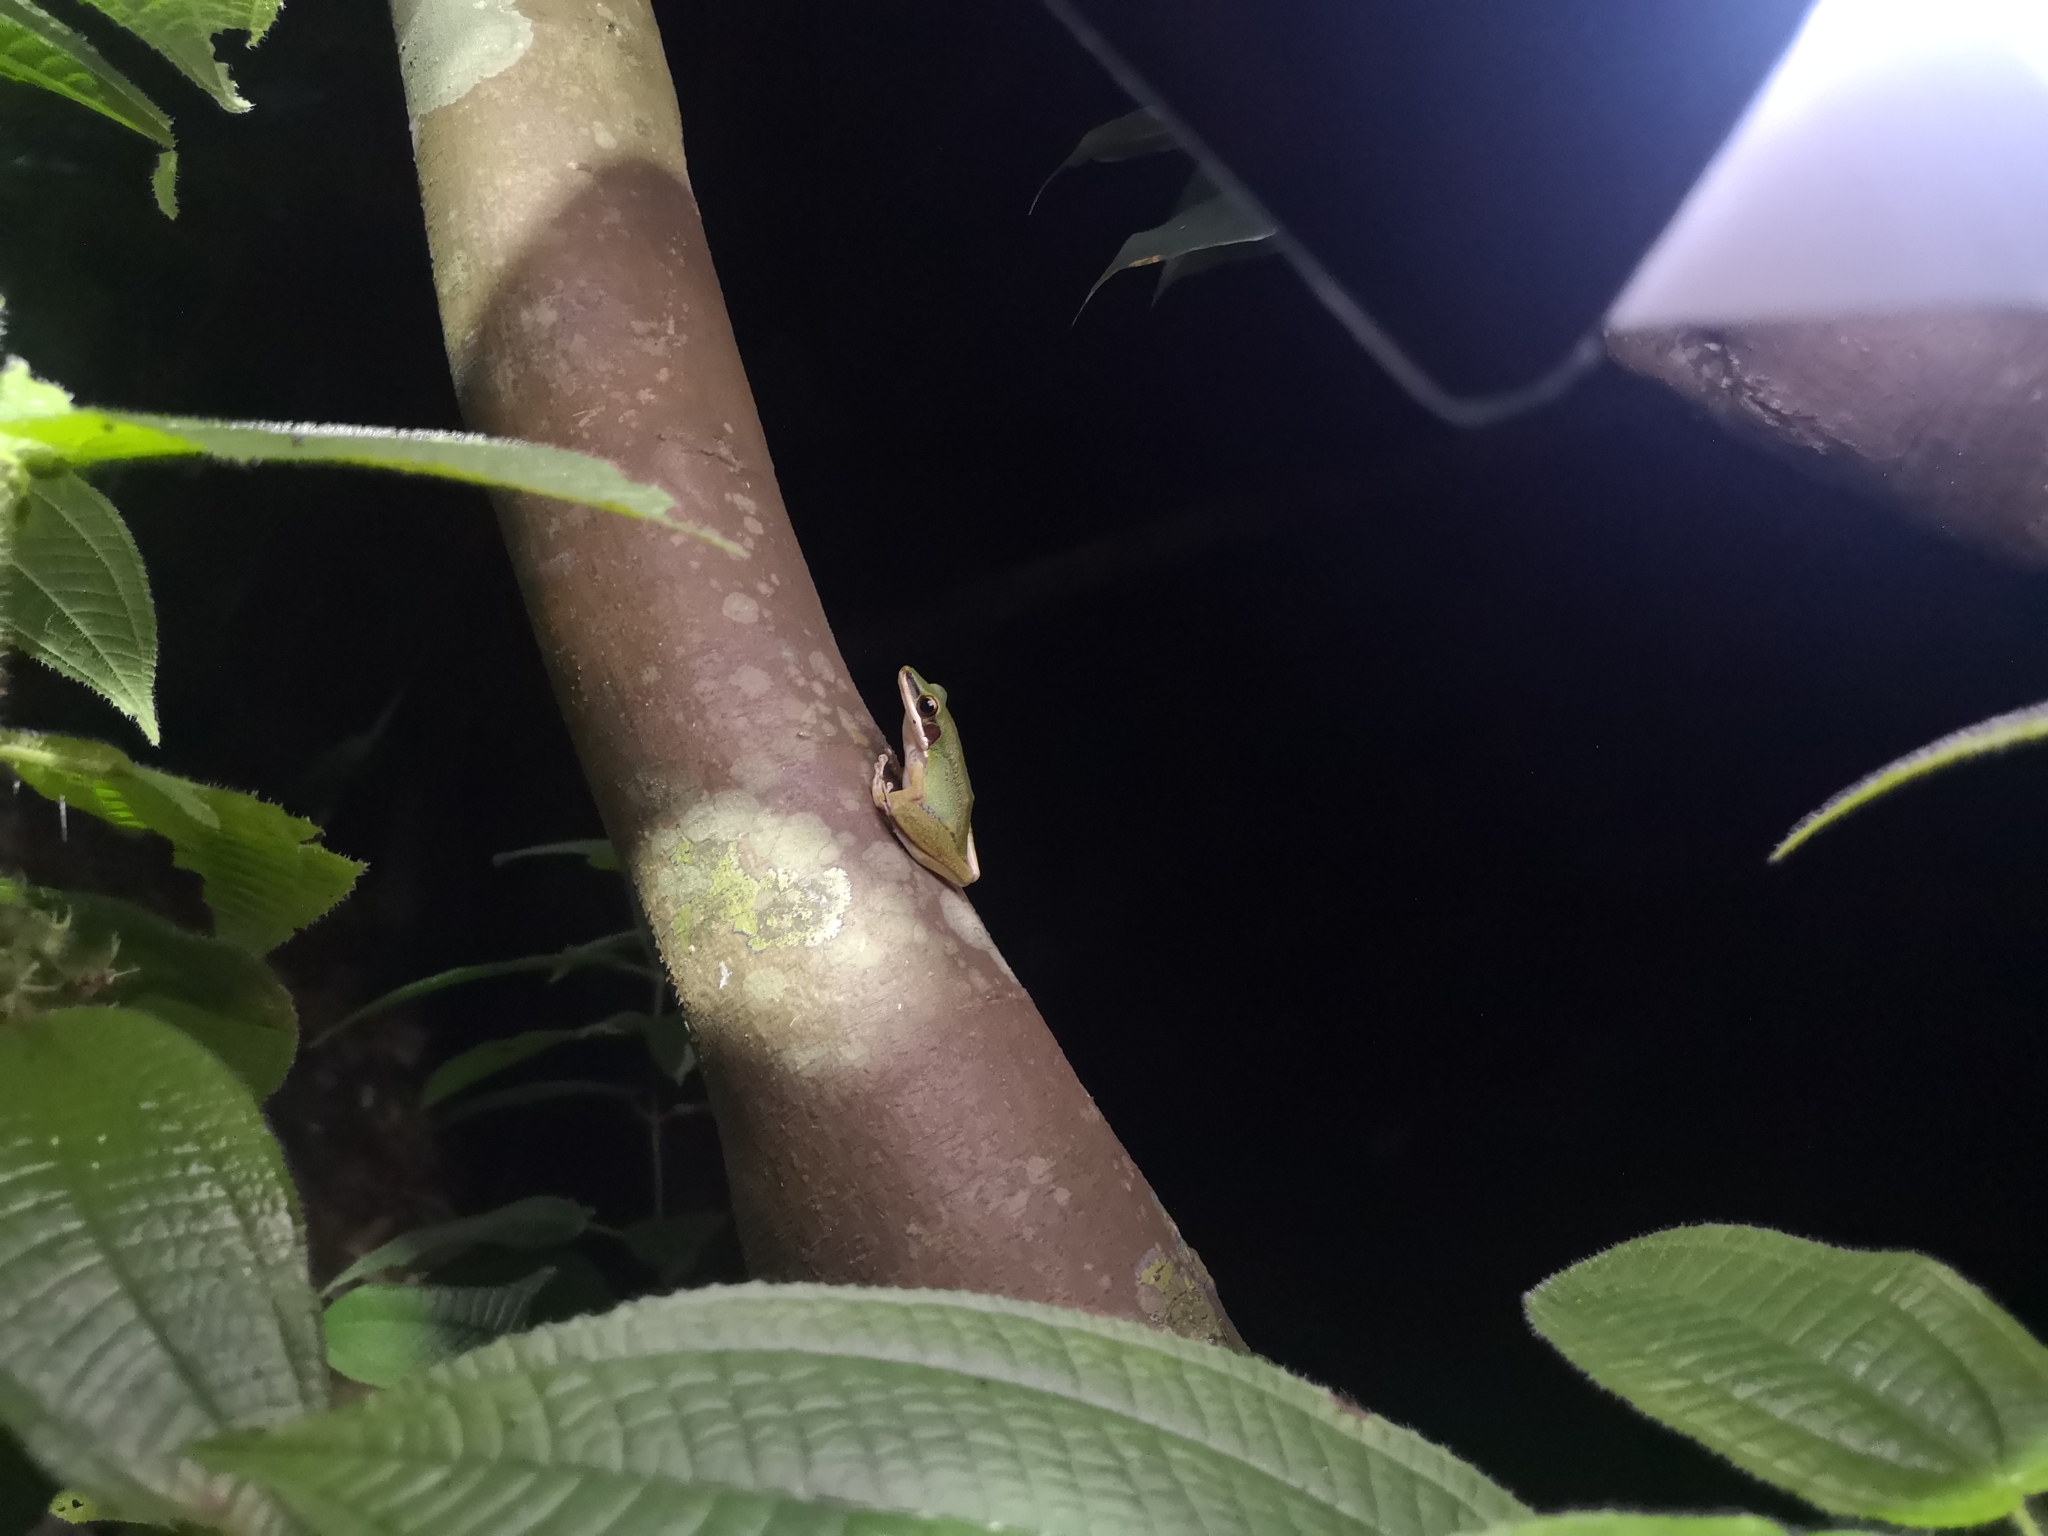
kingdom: Animalia
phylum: Chordata
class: Amphibia
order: Anura
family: Ranidae
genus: Chalcorana
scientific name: Chalcorana labialis
